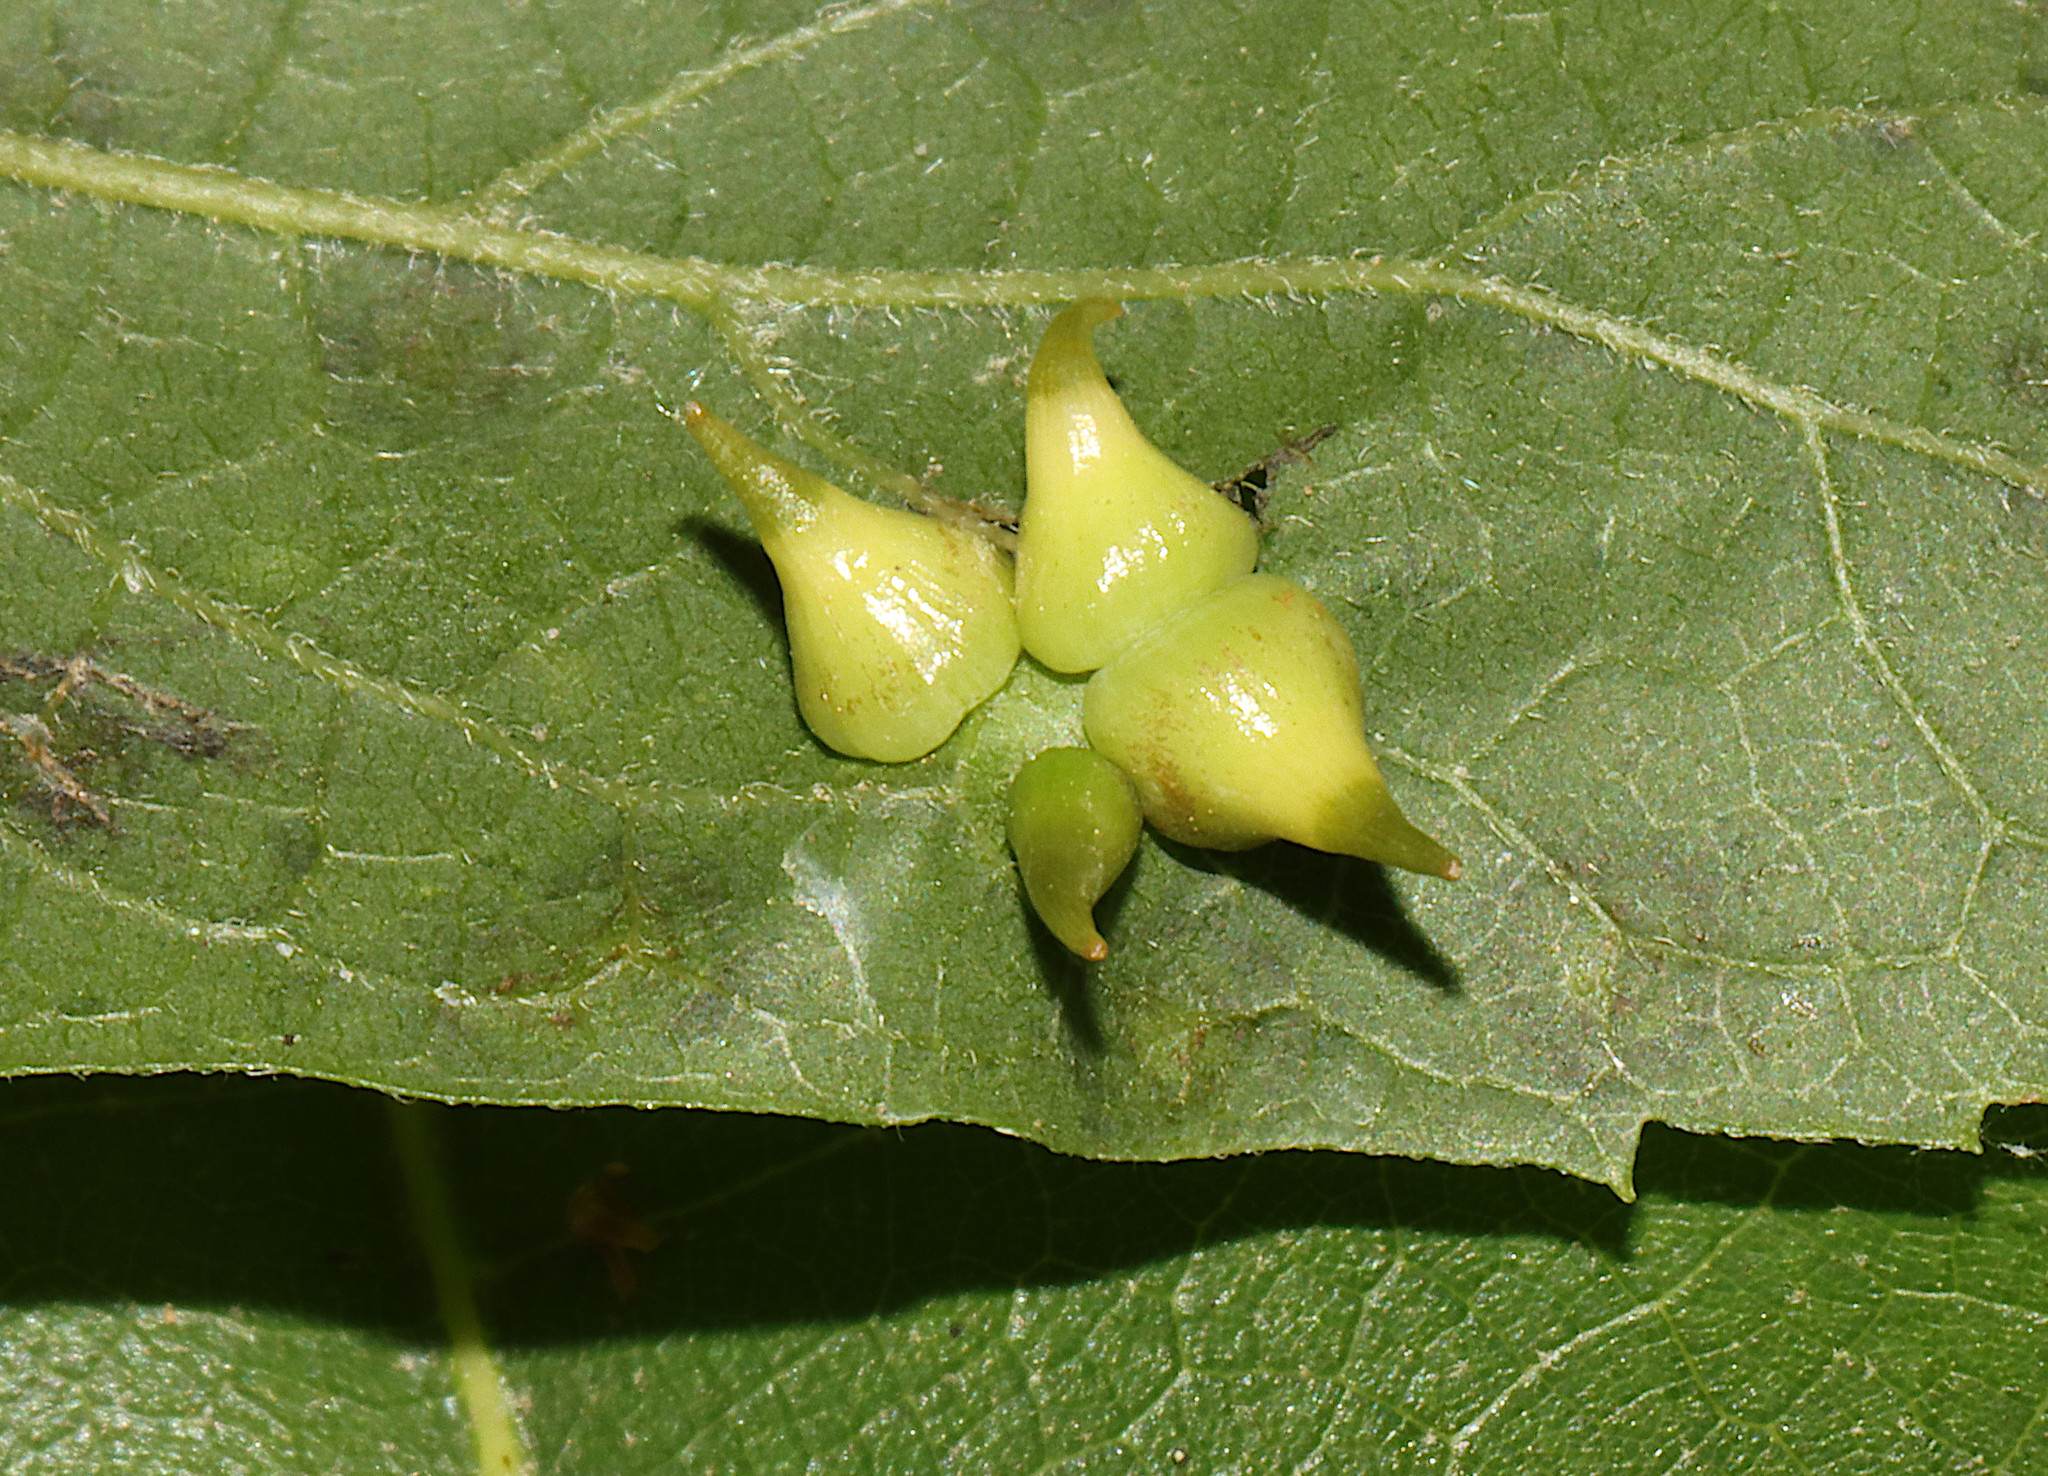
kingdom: Animalia
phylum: Arthropoda
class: Insecta
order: Diptera
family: Cecidomyiidae
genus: Celticecis
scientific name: Celticecis spiniformis
